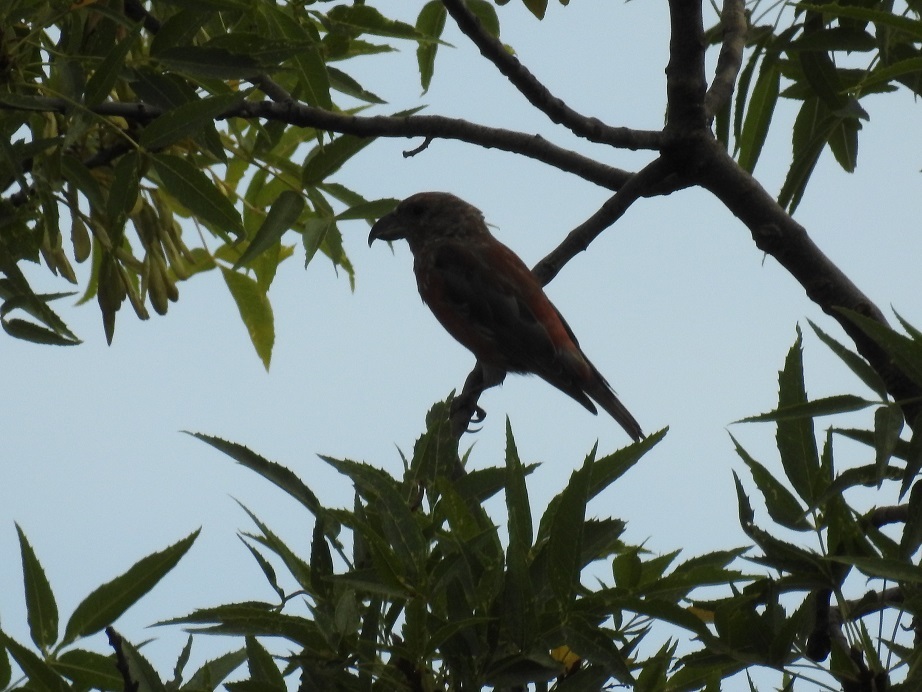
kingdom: Animalia
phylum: Chordata
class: Aves
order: Passeriformes
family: Fringillidae
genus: Loxia
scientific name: Loxia curvirostra
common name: Red crossbill
